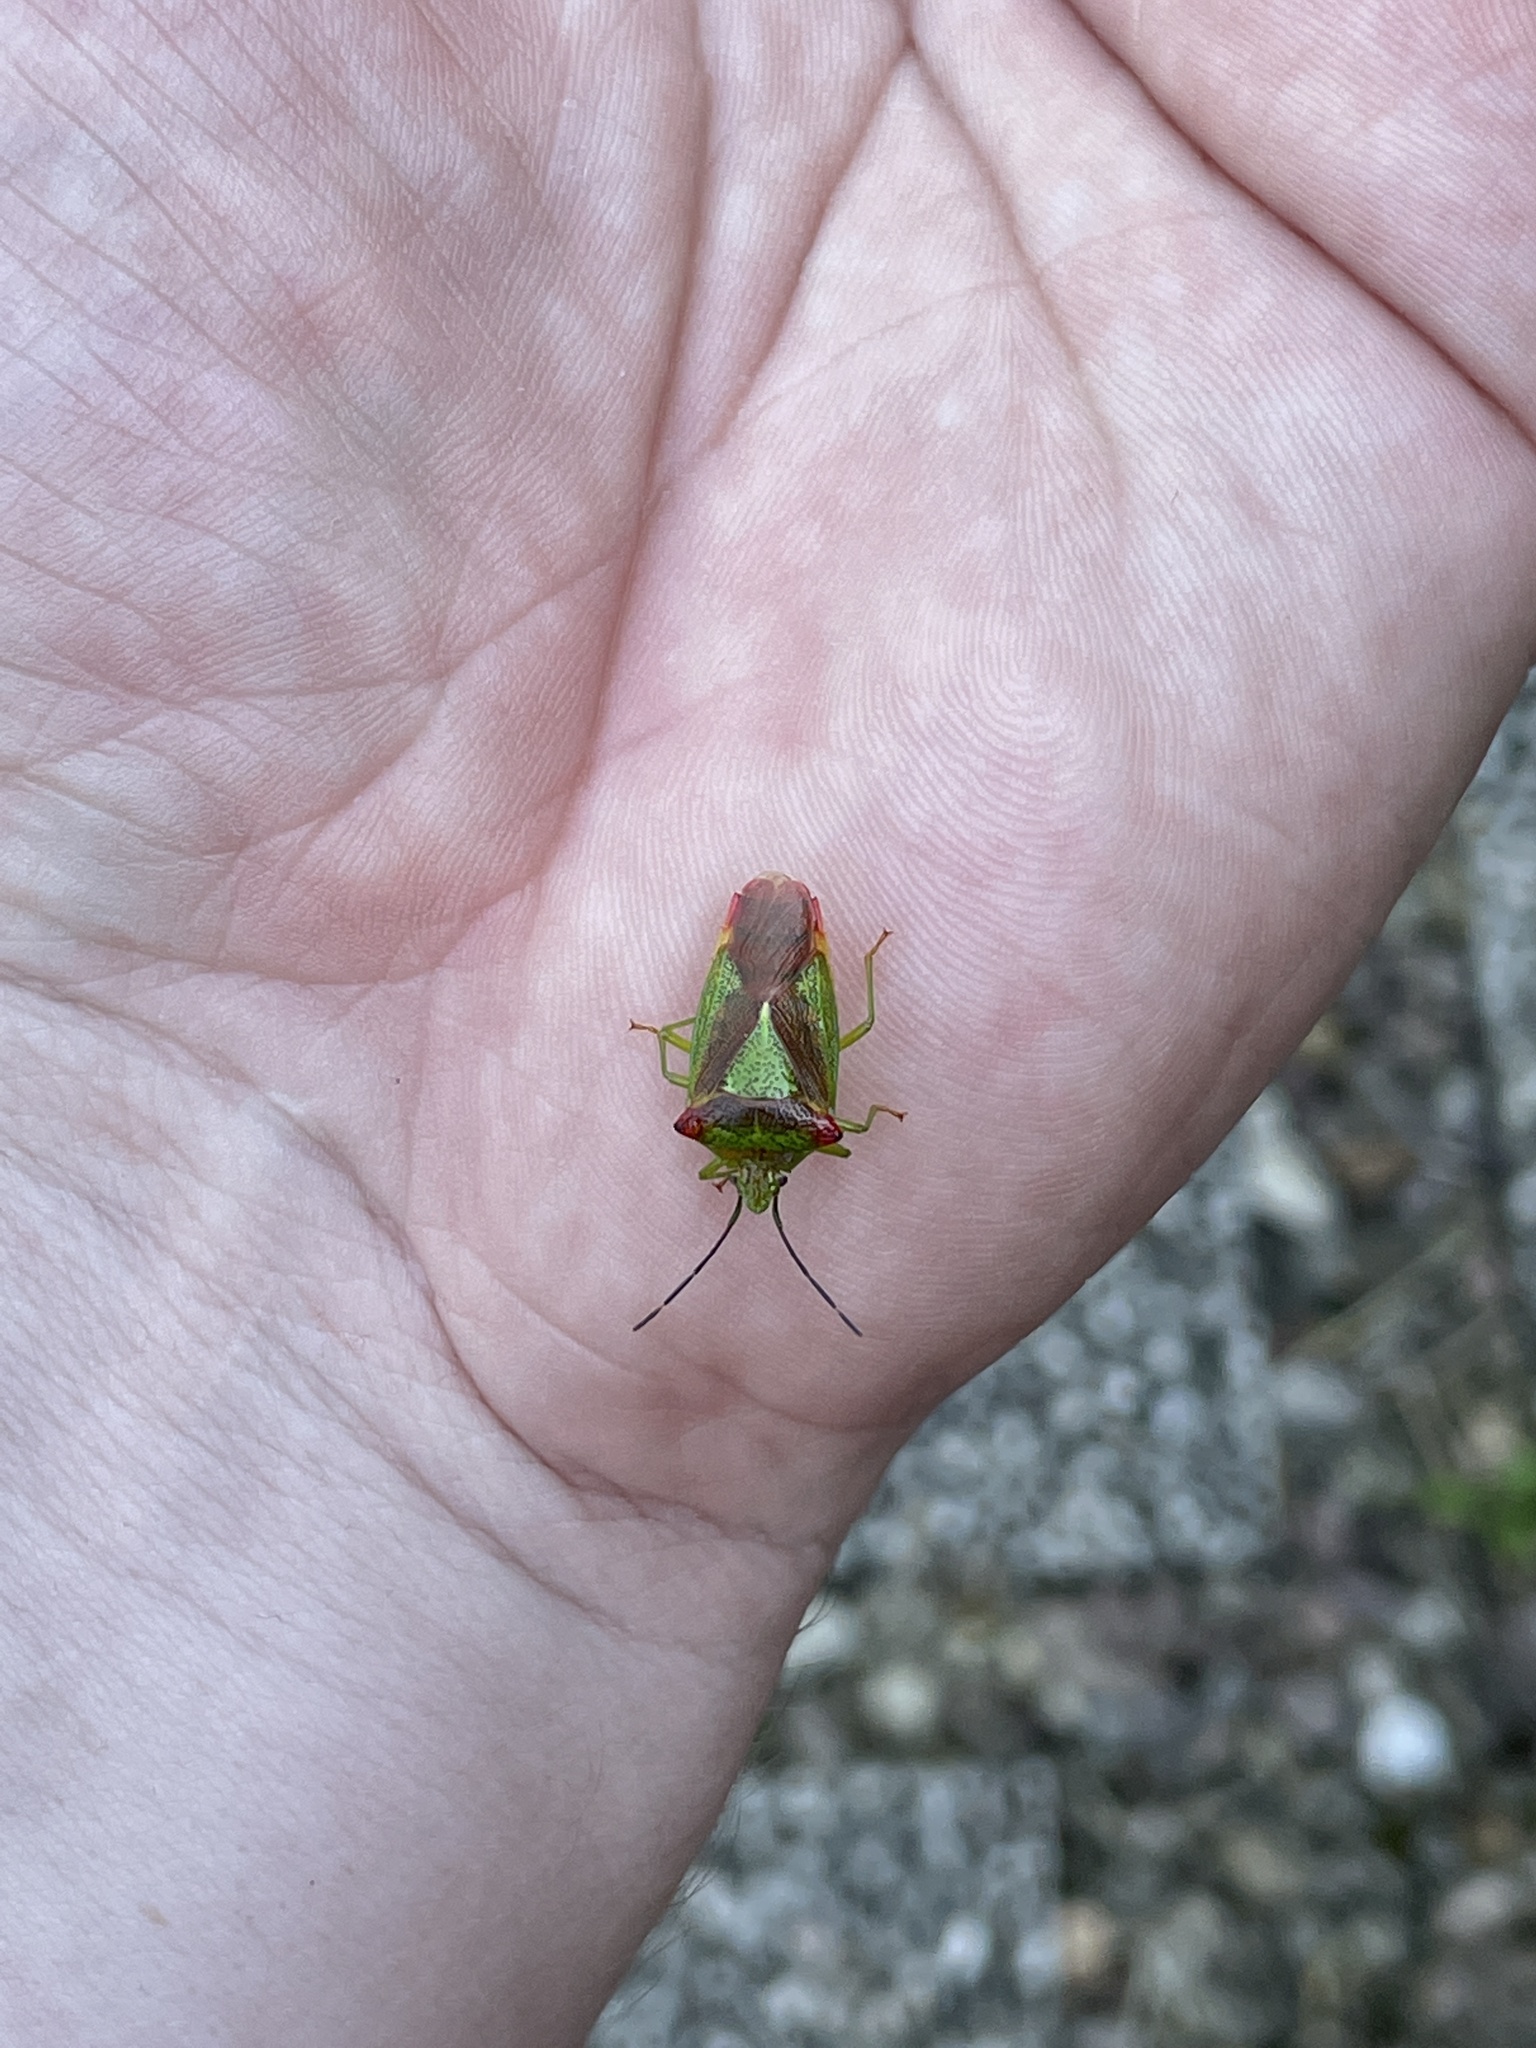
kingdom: Animalia
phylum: Arthropoda
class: Insecta
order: Hemiptera
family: Acanthosomatidae
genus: Acanthosoma
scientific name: Acanthosoma haemorrhoidale
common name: Hawthorn shieldbug
